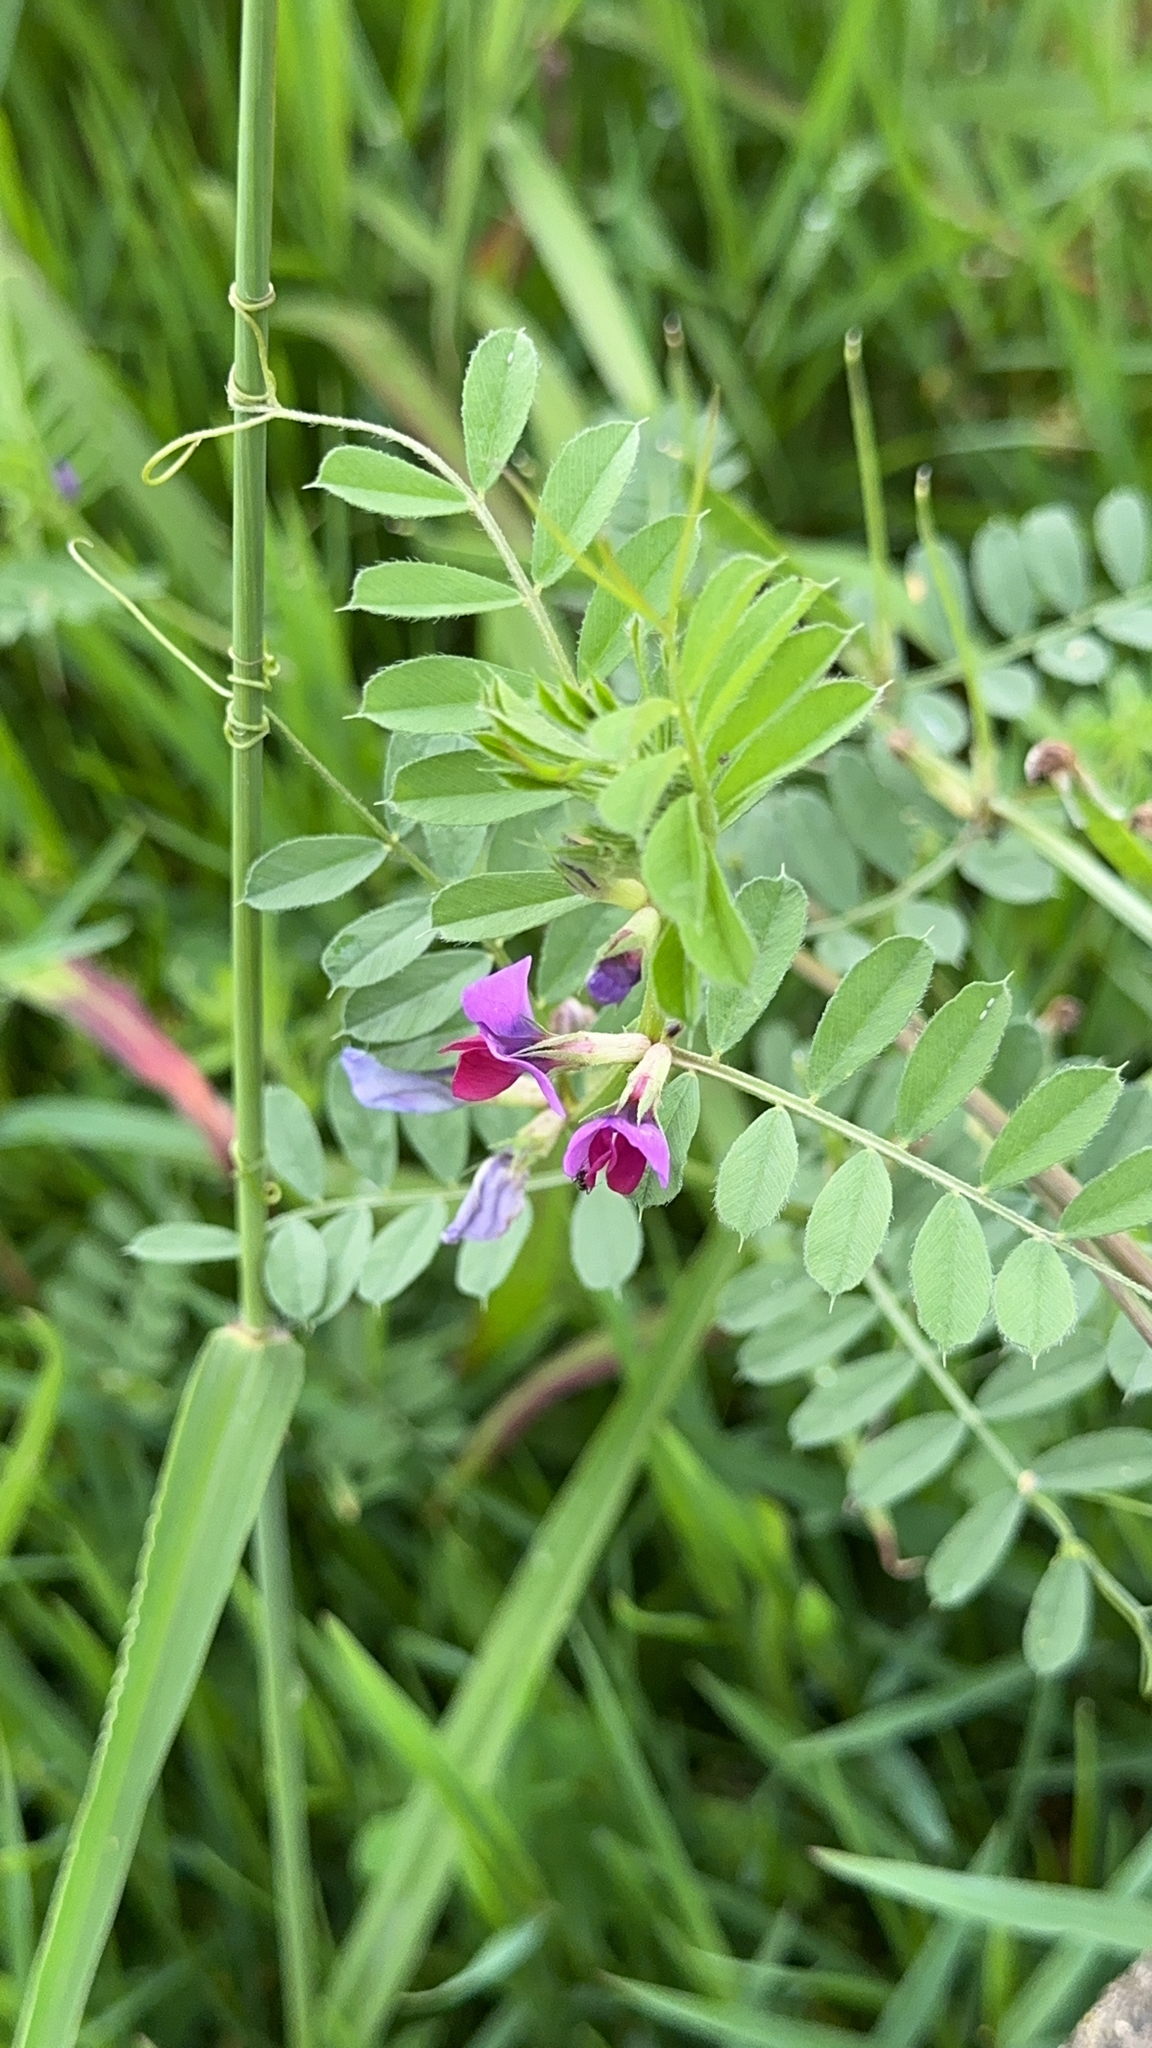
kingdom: Plantae
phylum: Tracheophyta
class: Magnoliopsida
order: Fabales
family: Fabaceae
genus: Vicia
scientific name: Vicia sativa
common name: Garden vetch
